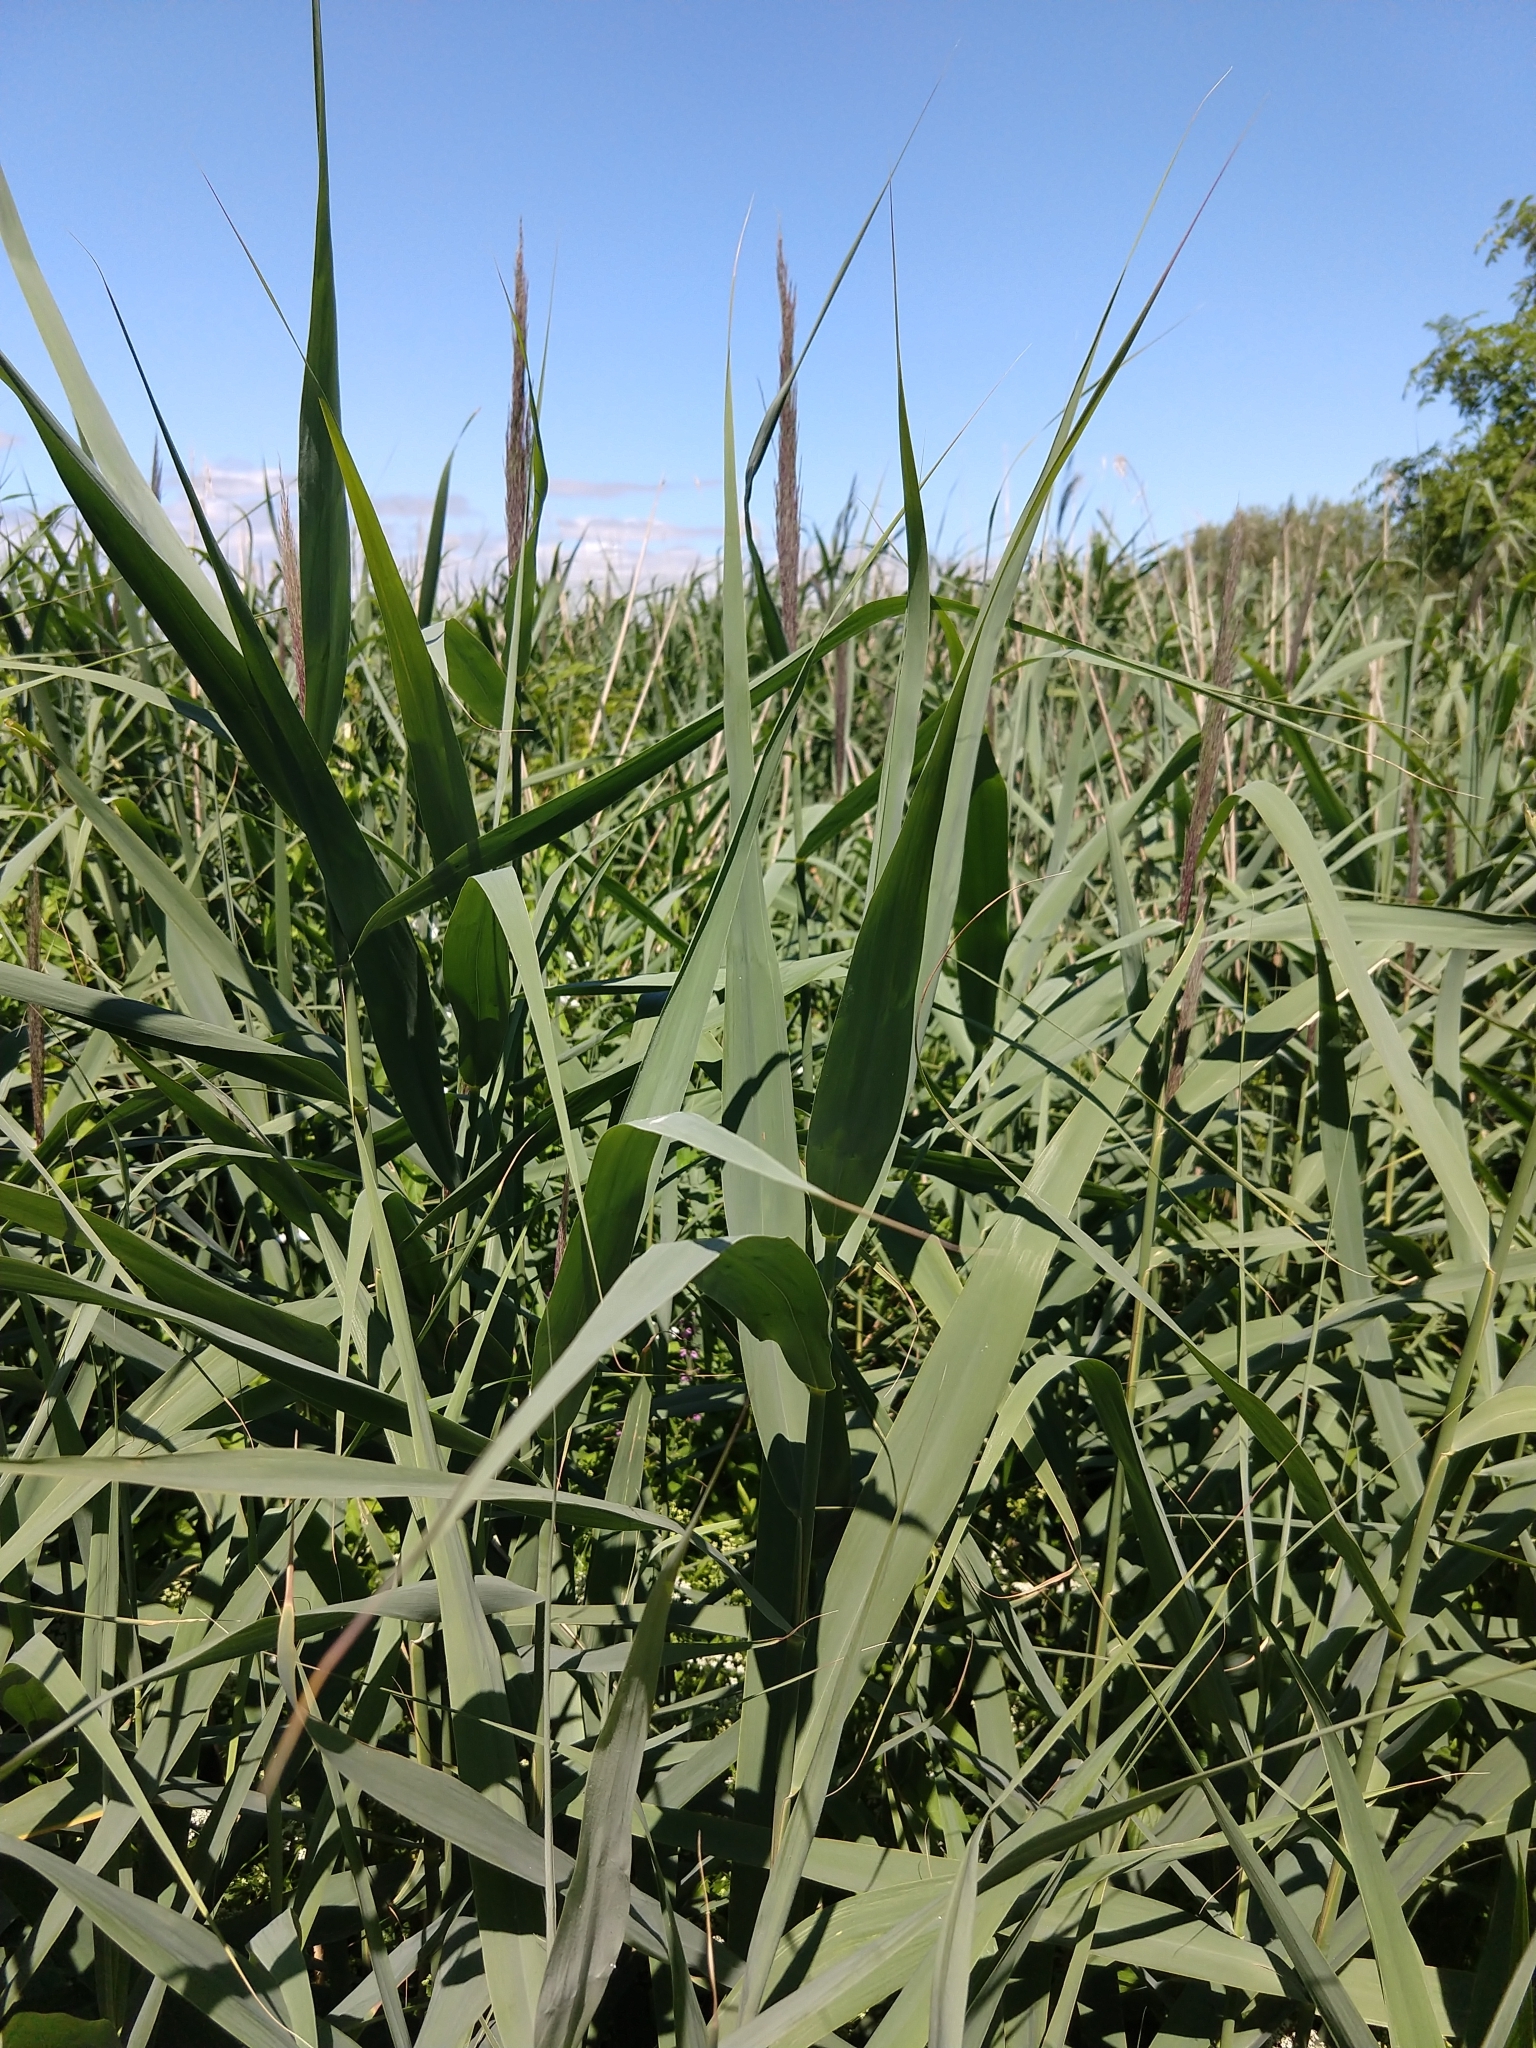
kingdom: Plantae
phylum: Tracheophyta
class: Liliopsida
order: Poales
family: Poaceae
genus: Phragmites
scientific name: Phragmites australis
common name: Common reed
